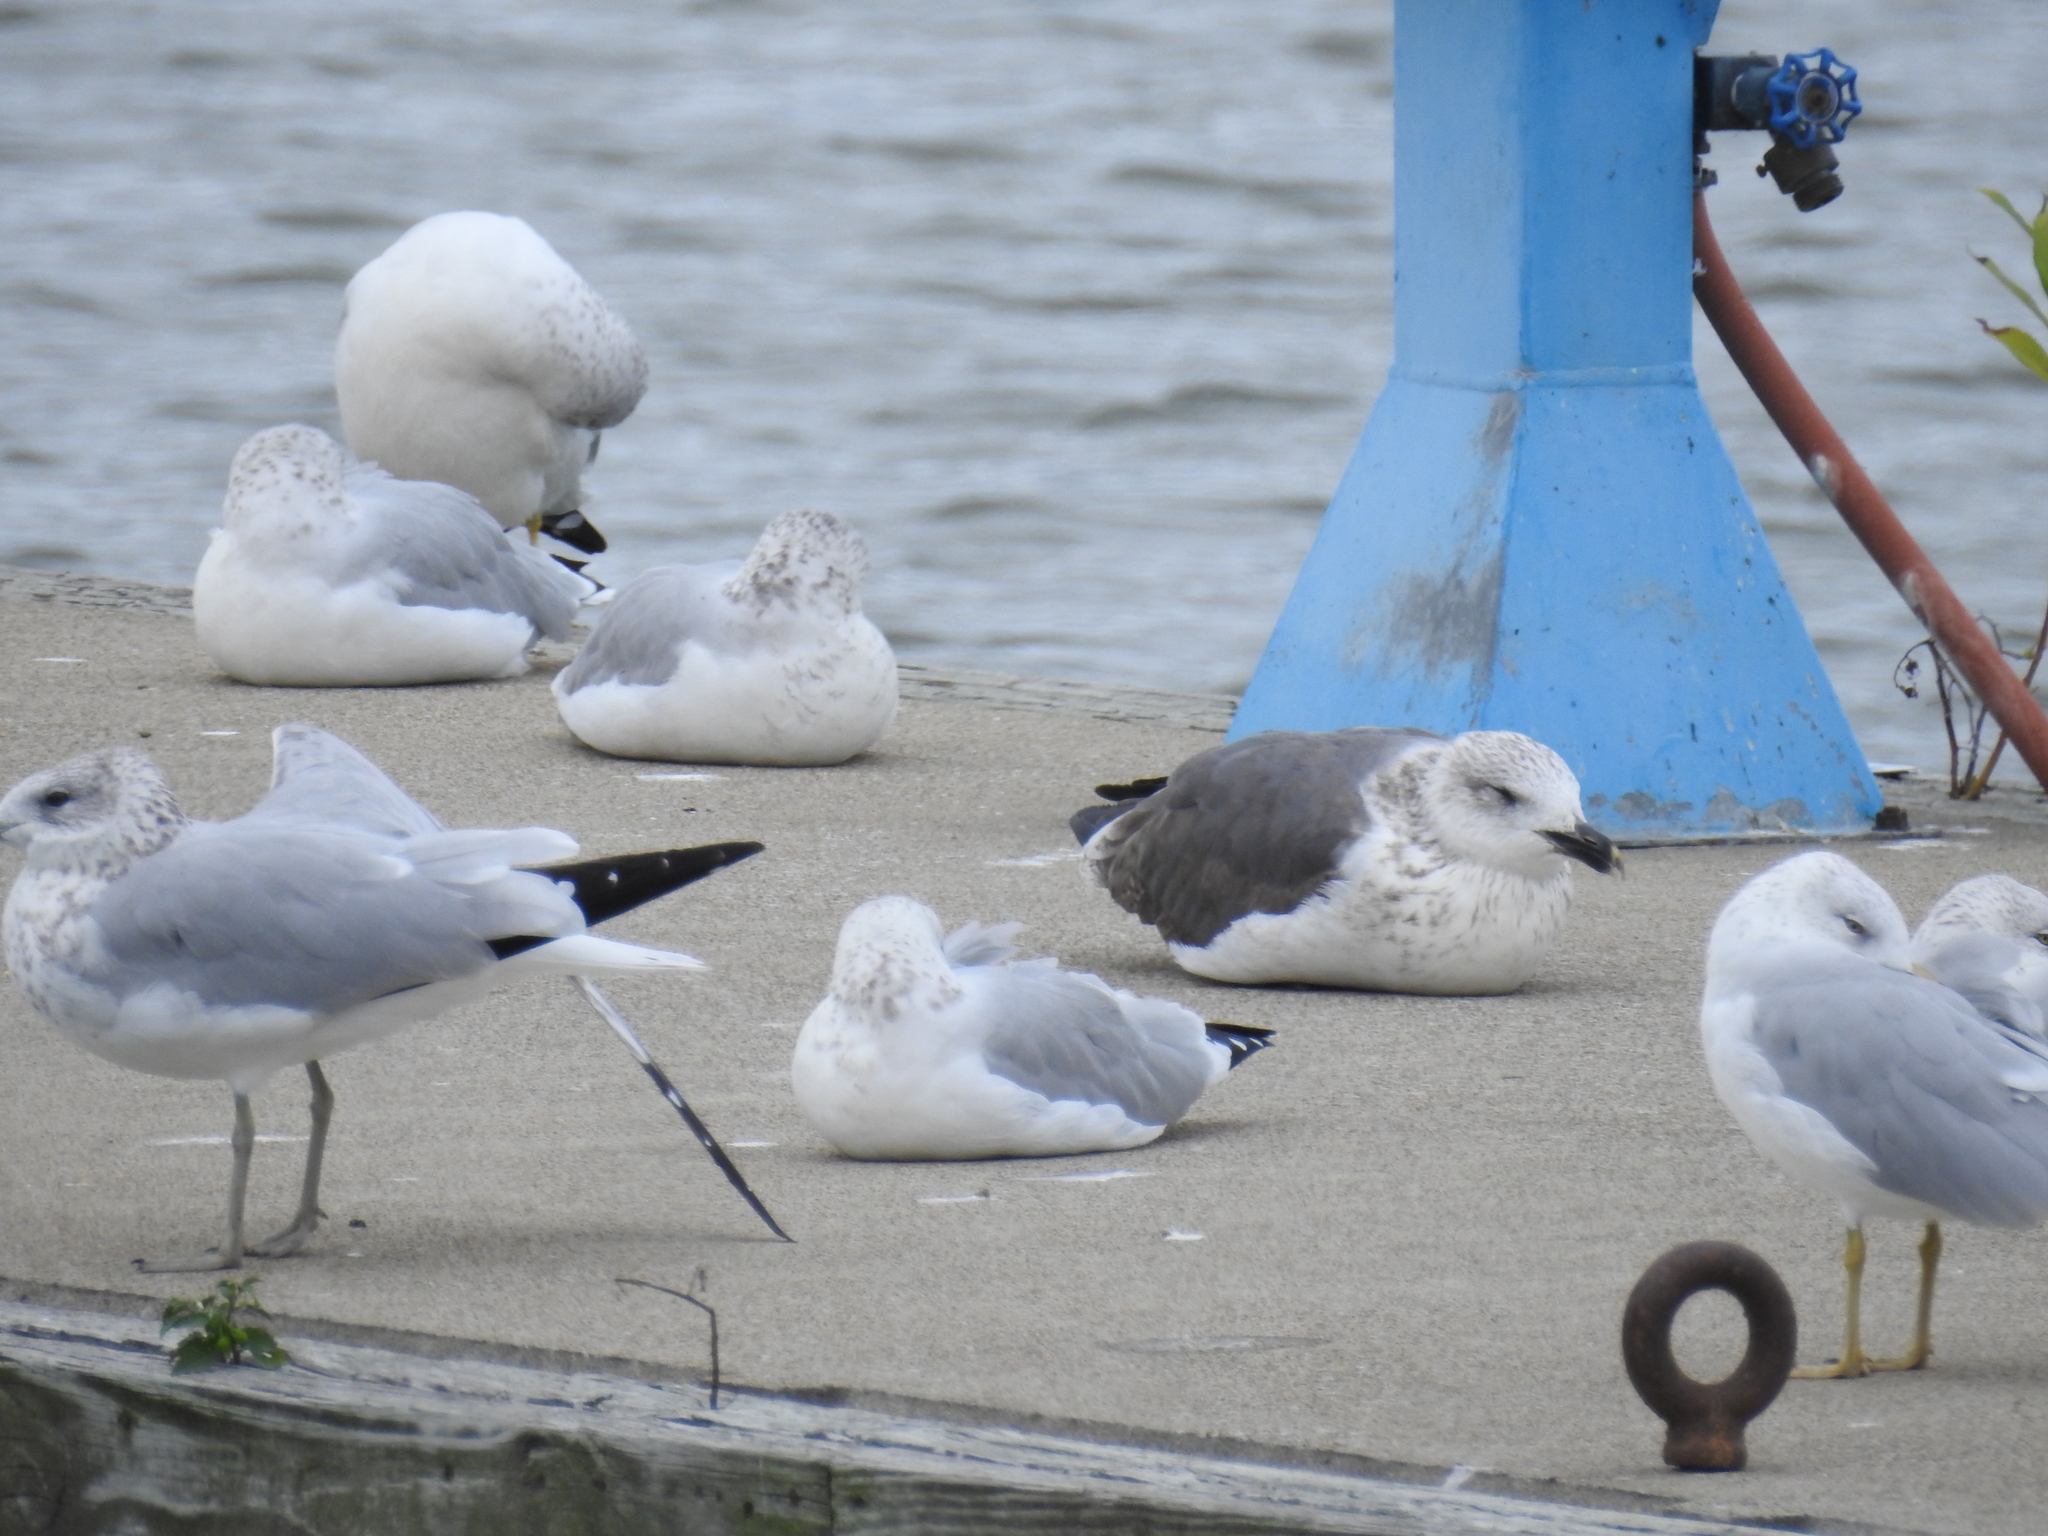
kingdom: Animalia
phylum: Chordata
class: Aves
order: Charadriiformes
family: Laridae
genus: Larus
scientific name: Larus delawarensis
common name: Ring-billed gull
